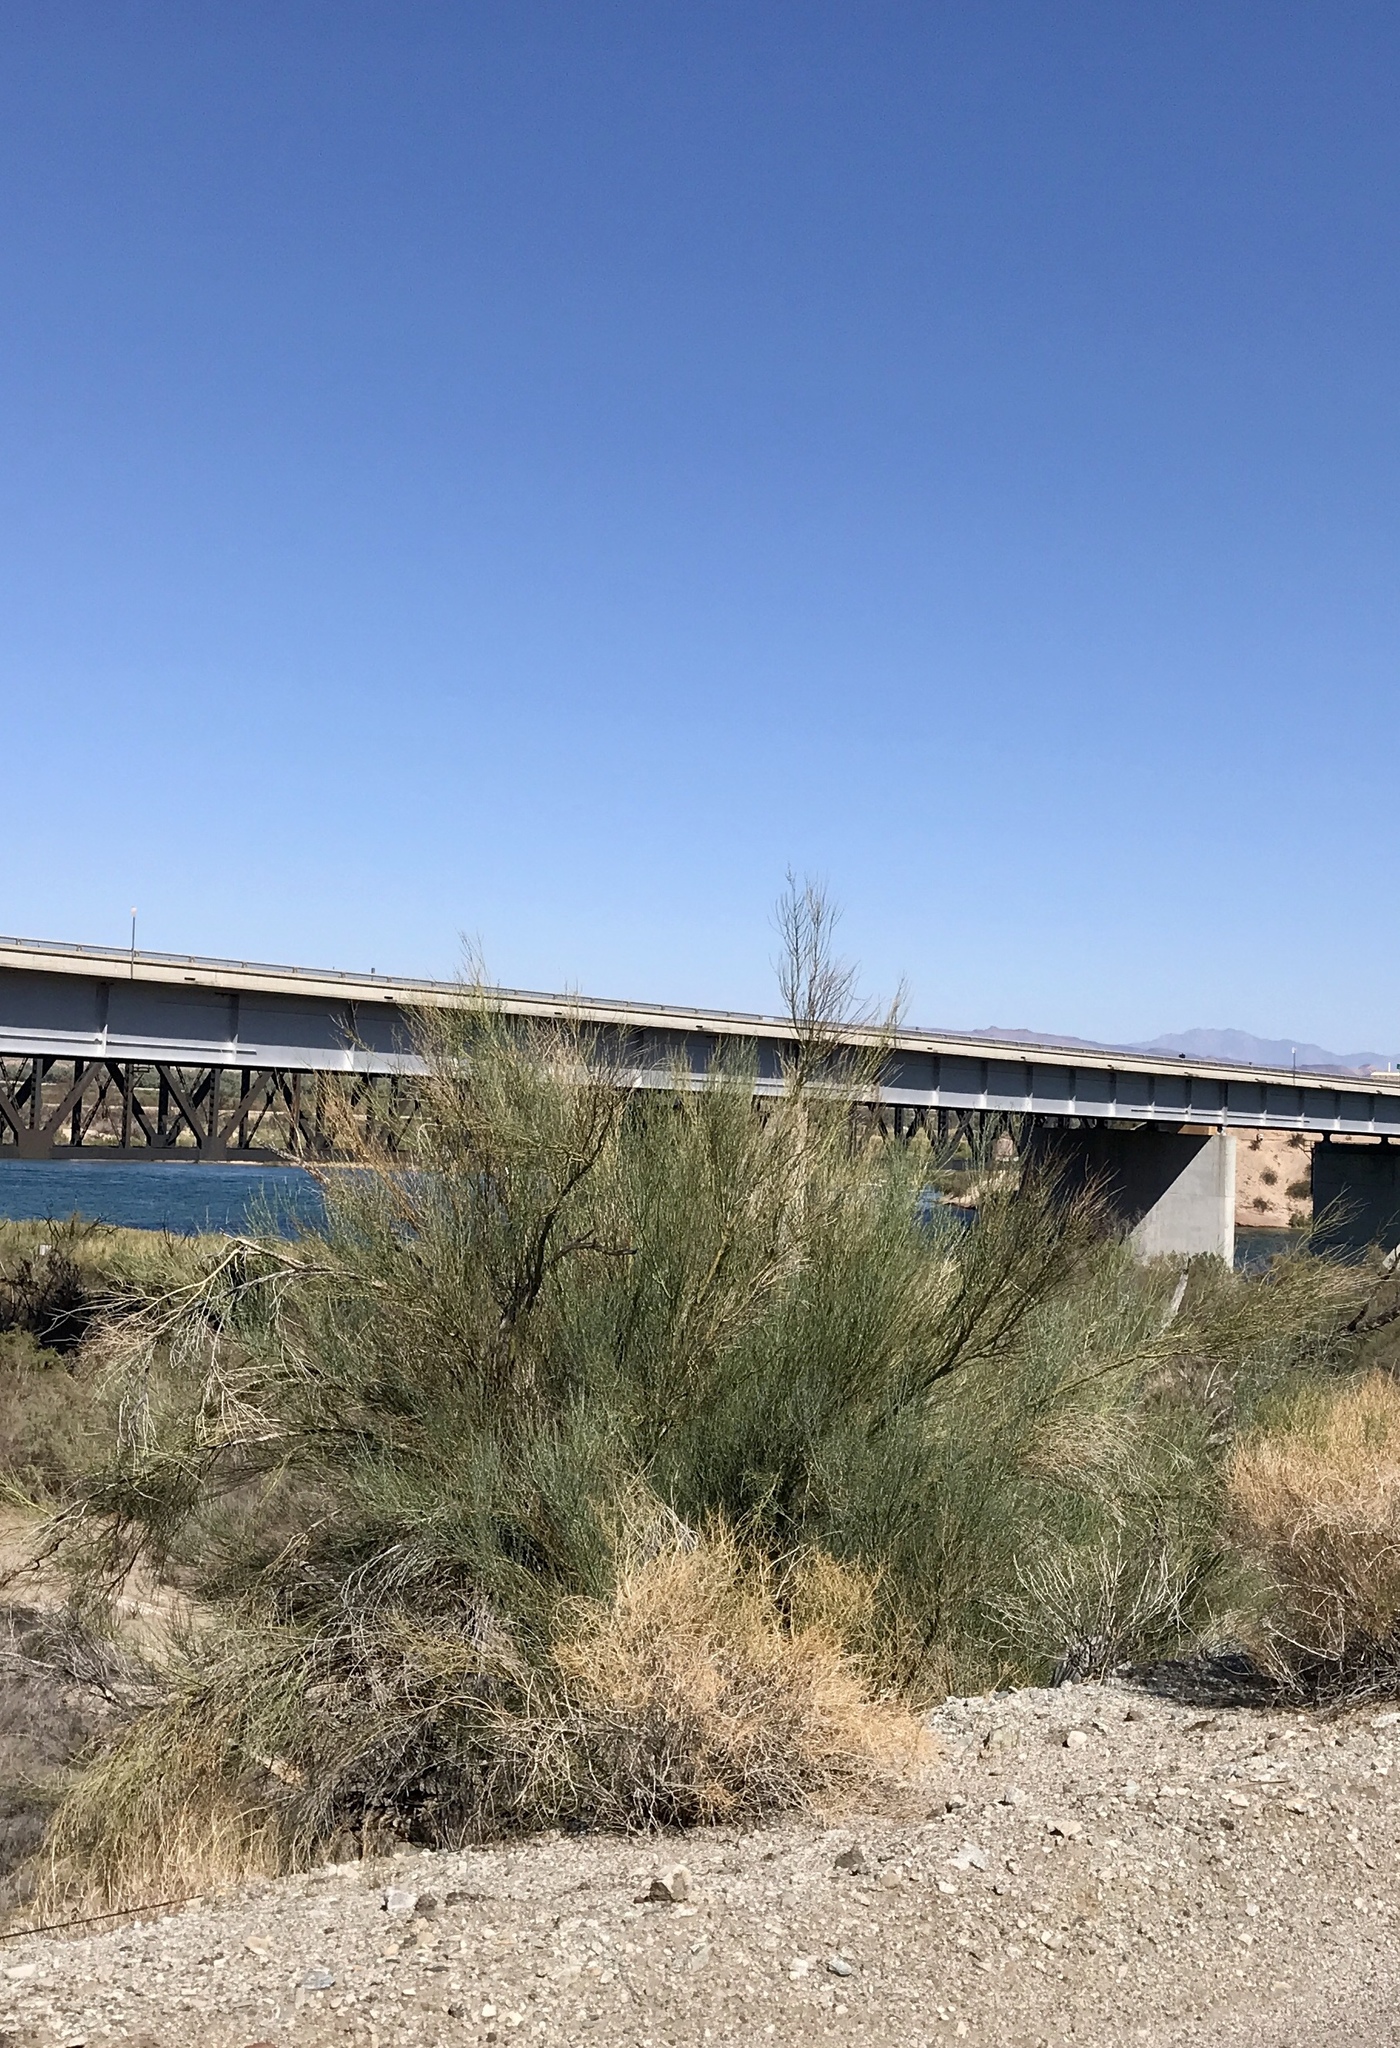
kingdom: Plantae
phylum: Tracheophyta
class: Magnoliopsida
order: Fabales
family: Fabaceae
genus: Parkinsonia
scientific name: Parkinsonia florida
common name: Blue paloverde
